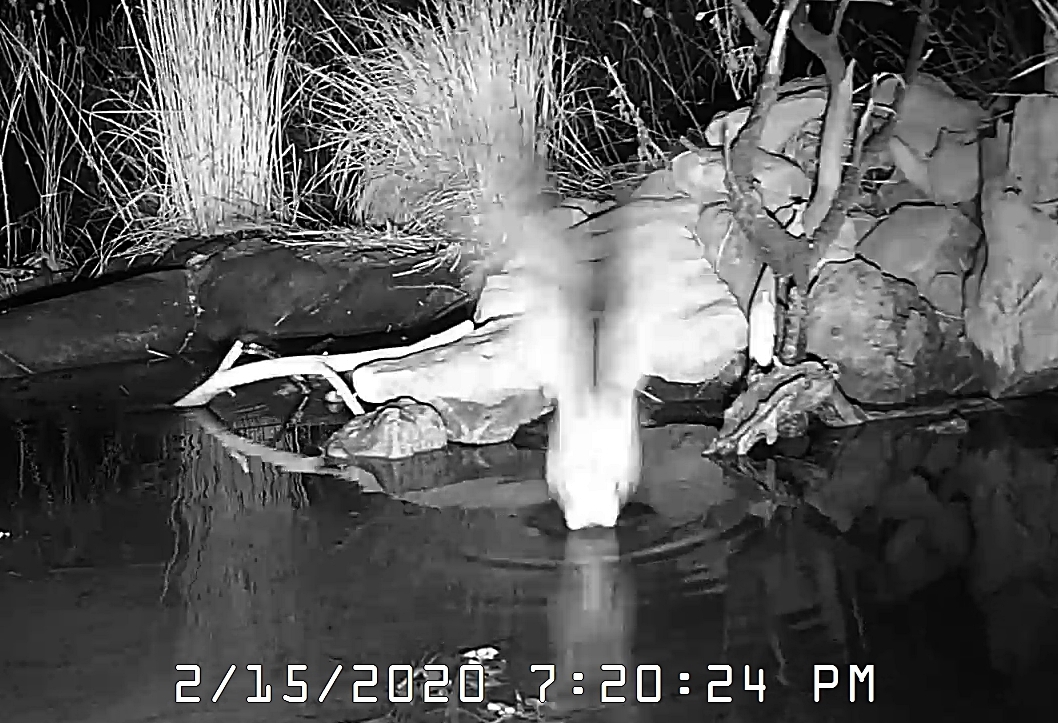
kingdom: Animalia
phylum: Chordata
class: Aves
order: Strigiformes
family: Strigidae
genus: Megascops
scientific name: Megascops asio
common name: Eastern screech-owl
